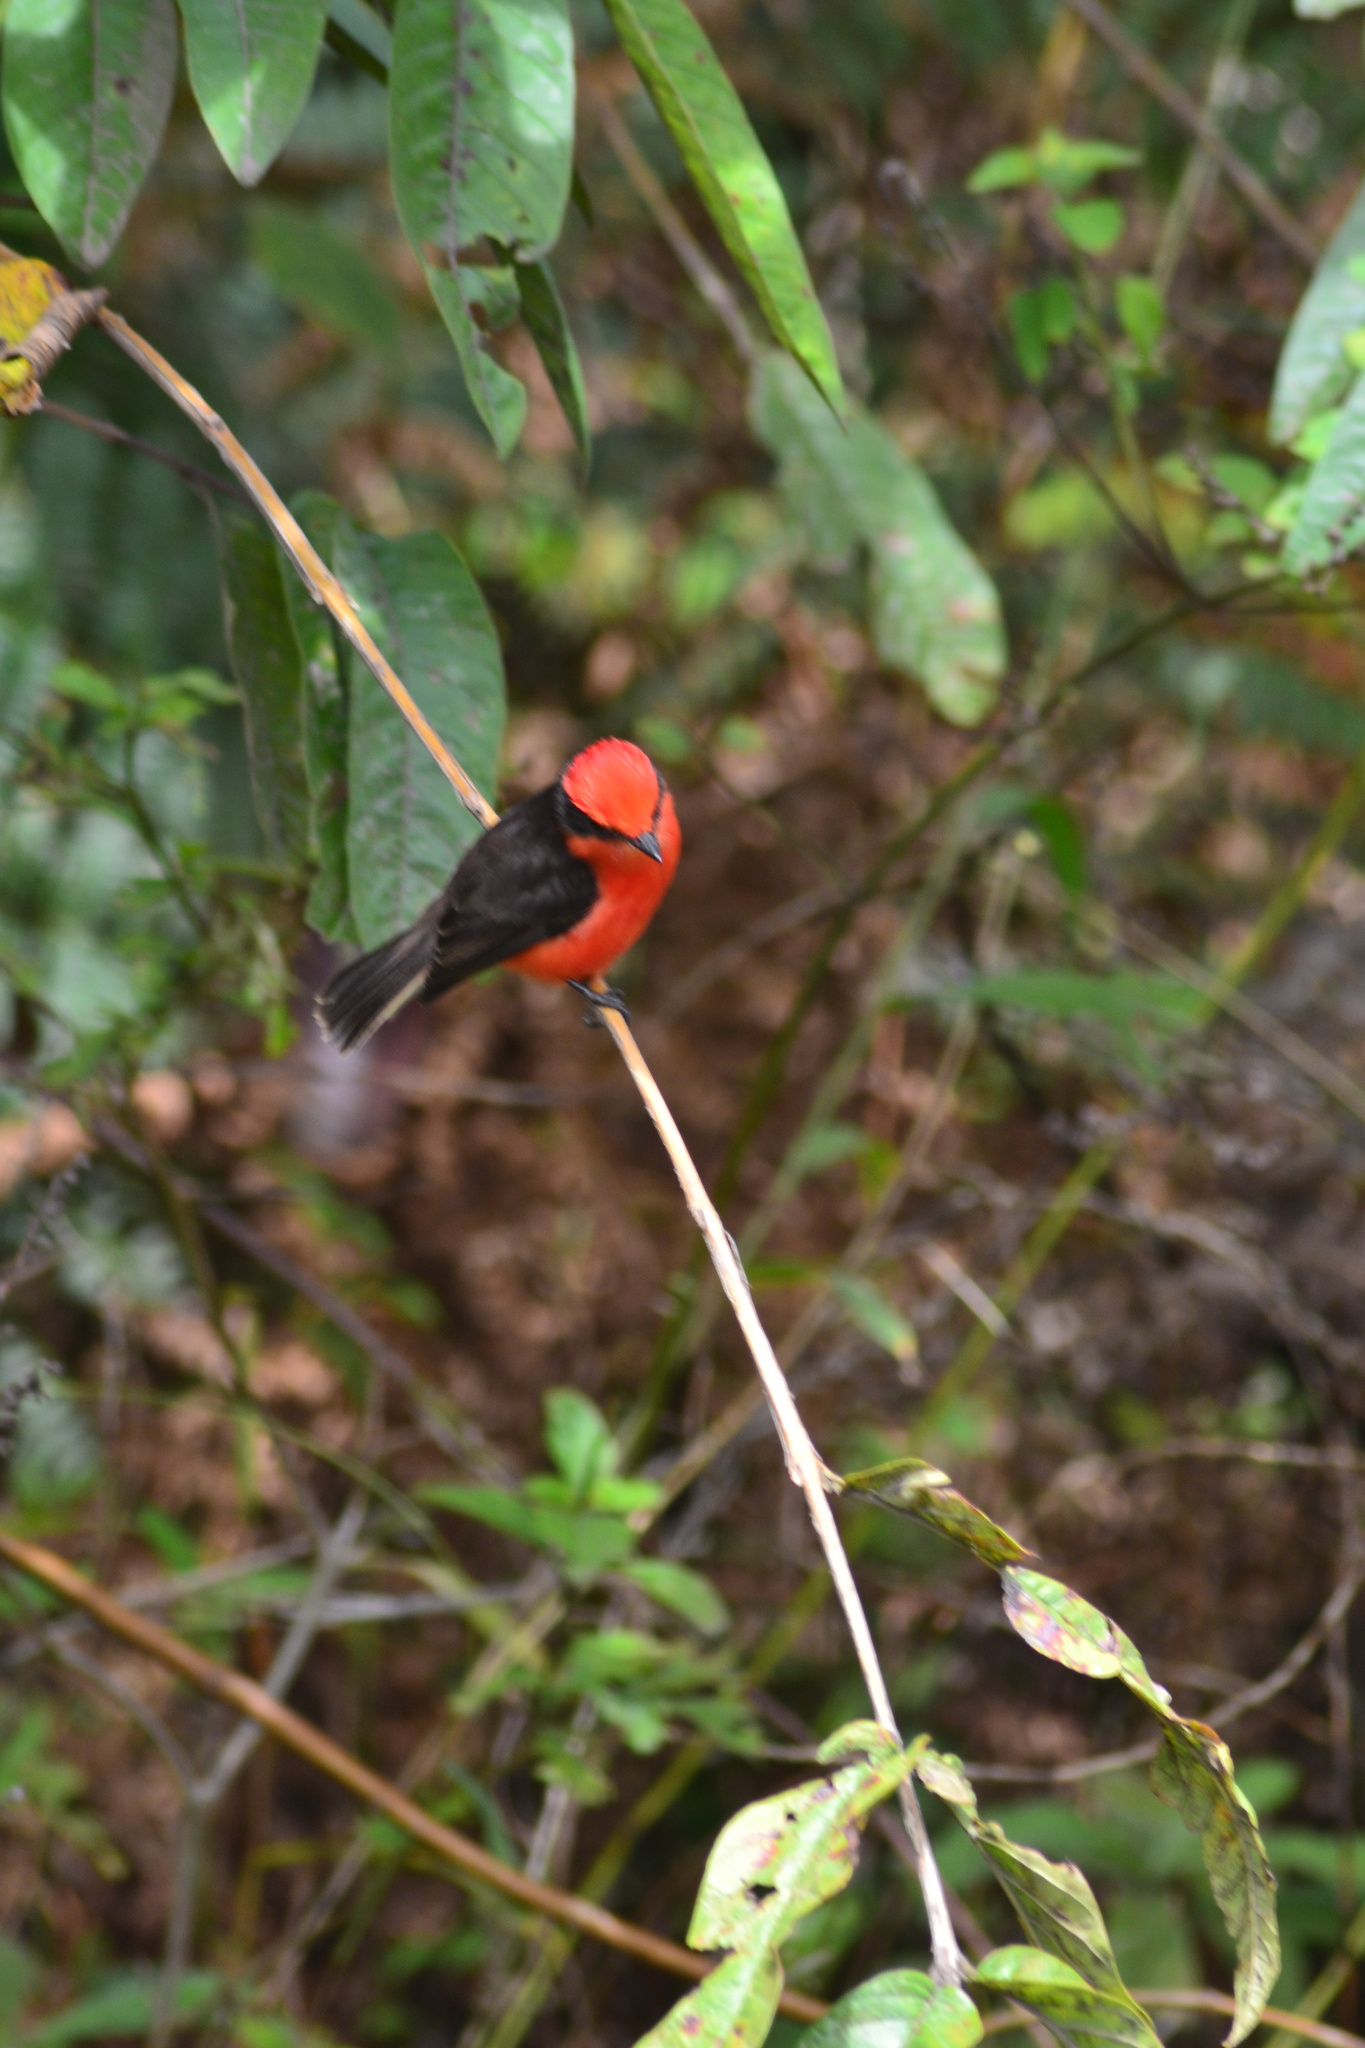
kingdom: Animalia
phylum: Chordata
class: Aves
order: Passeriformes
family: Tyrannidae
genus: Pyrocephalus
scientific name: Pyrocephalus rubinus
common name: Vermilion flycatcher
